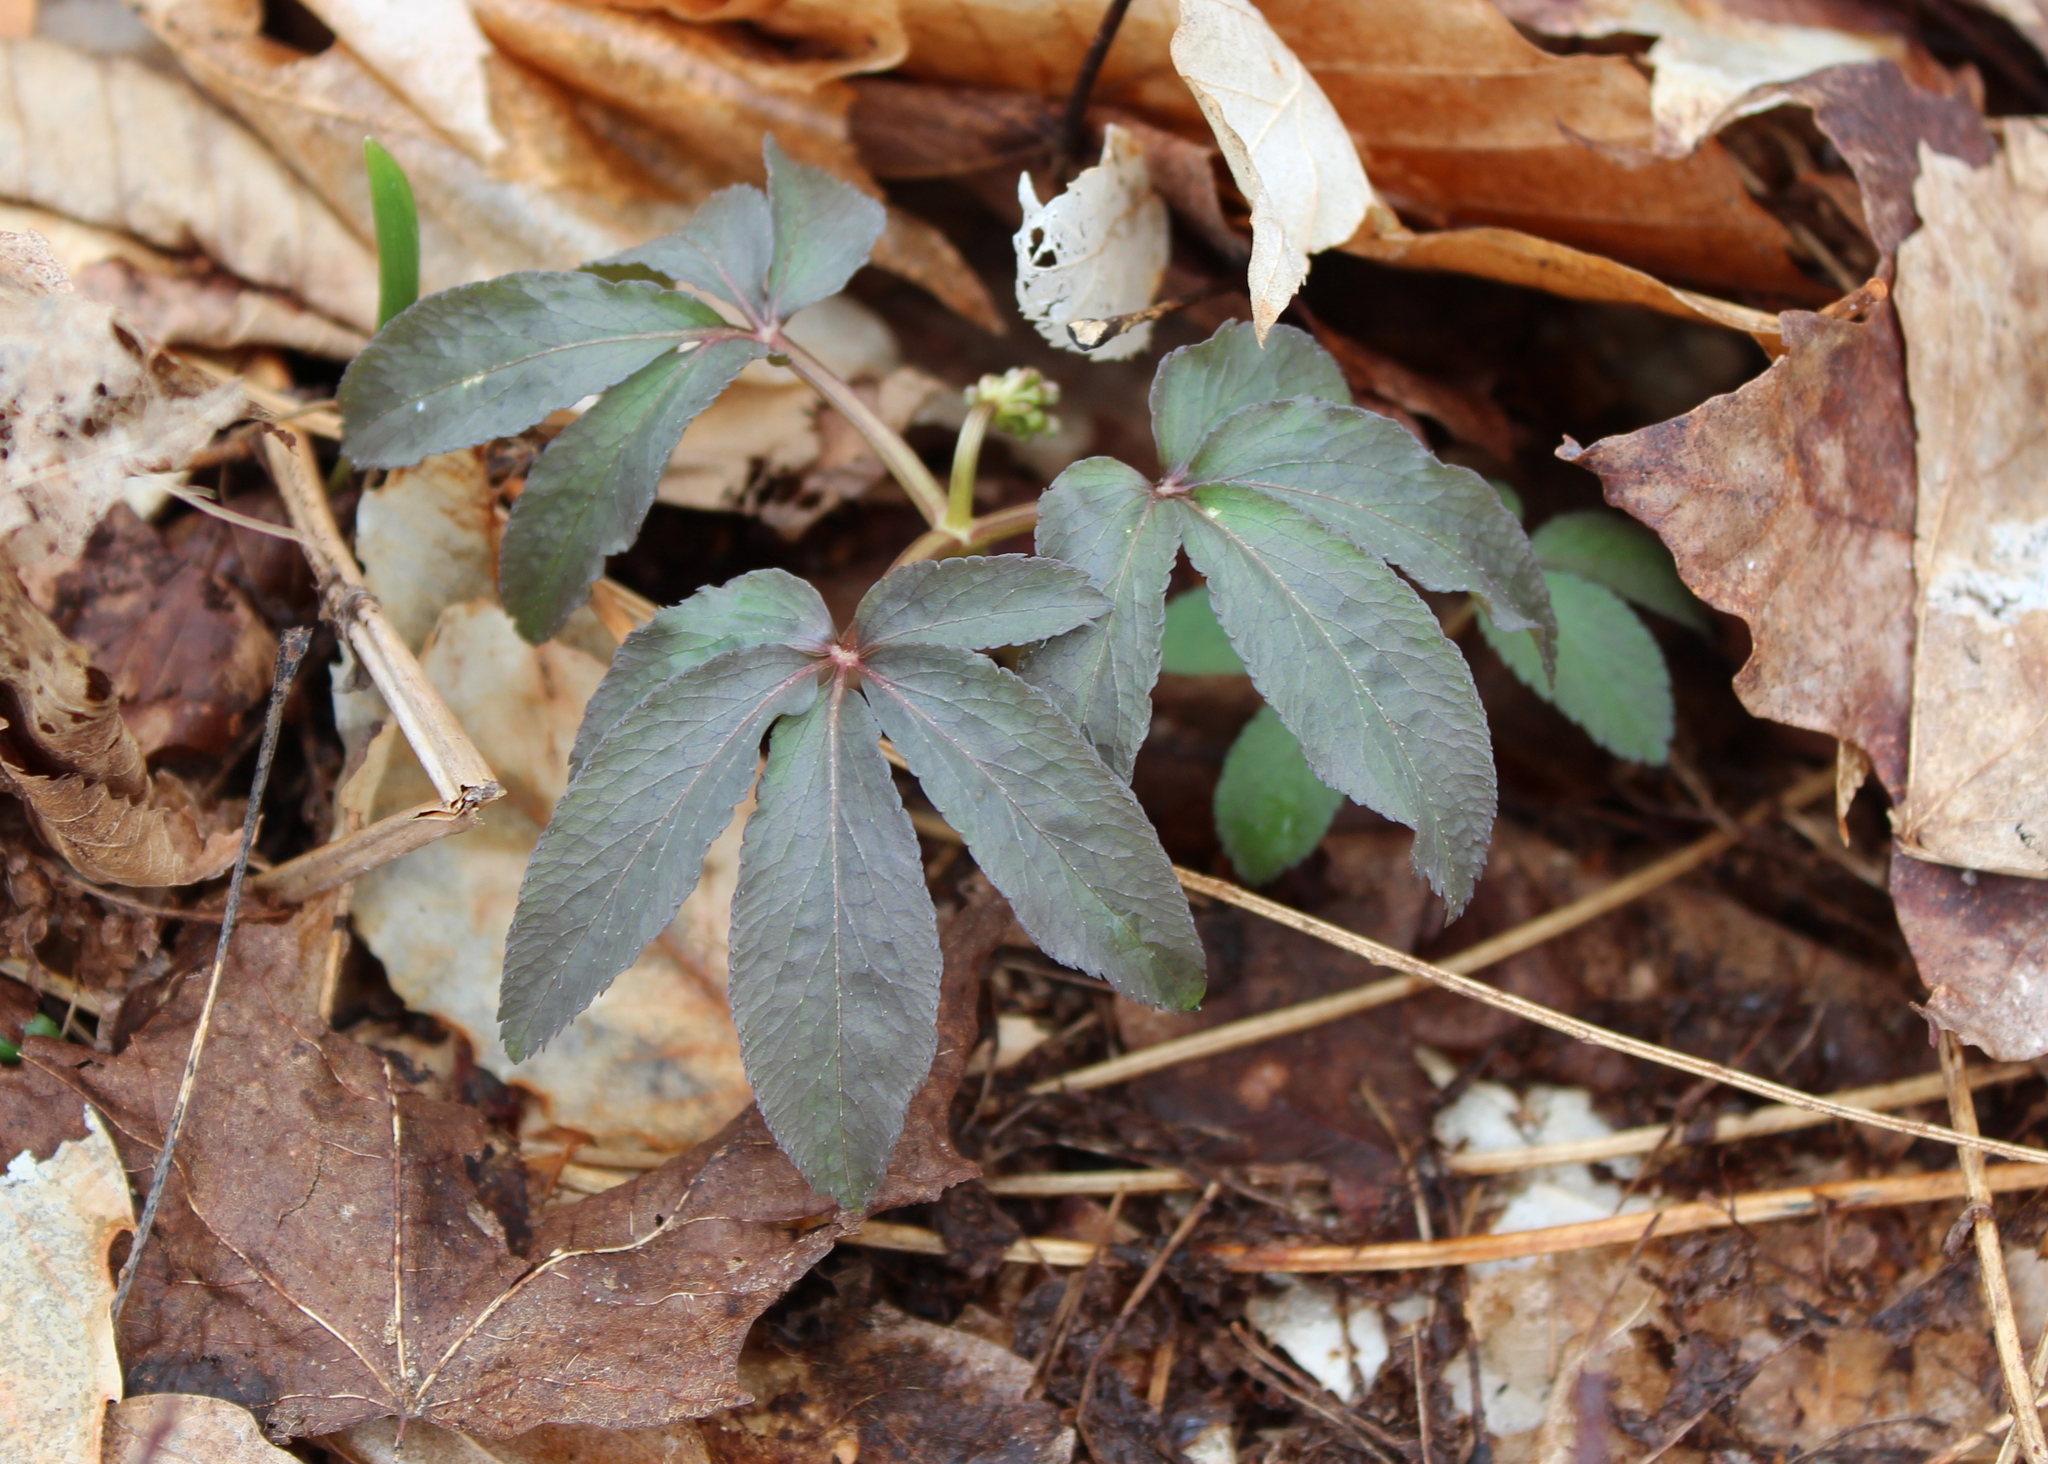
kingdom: Plantae
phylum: Tracheophyta
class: Magnoliopsida
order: Apiales
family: Araliaceae
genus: Panax
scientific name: Panax trifolius
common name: Dwarf ginseng
